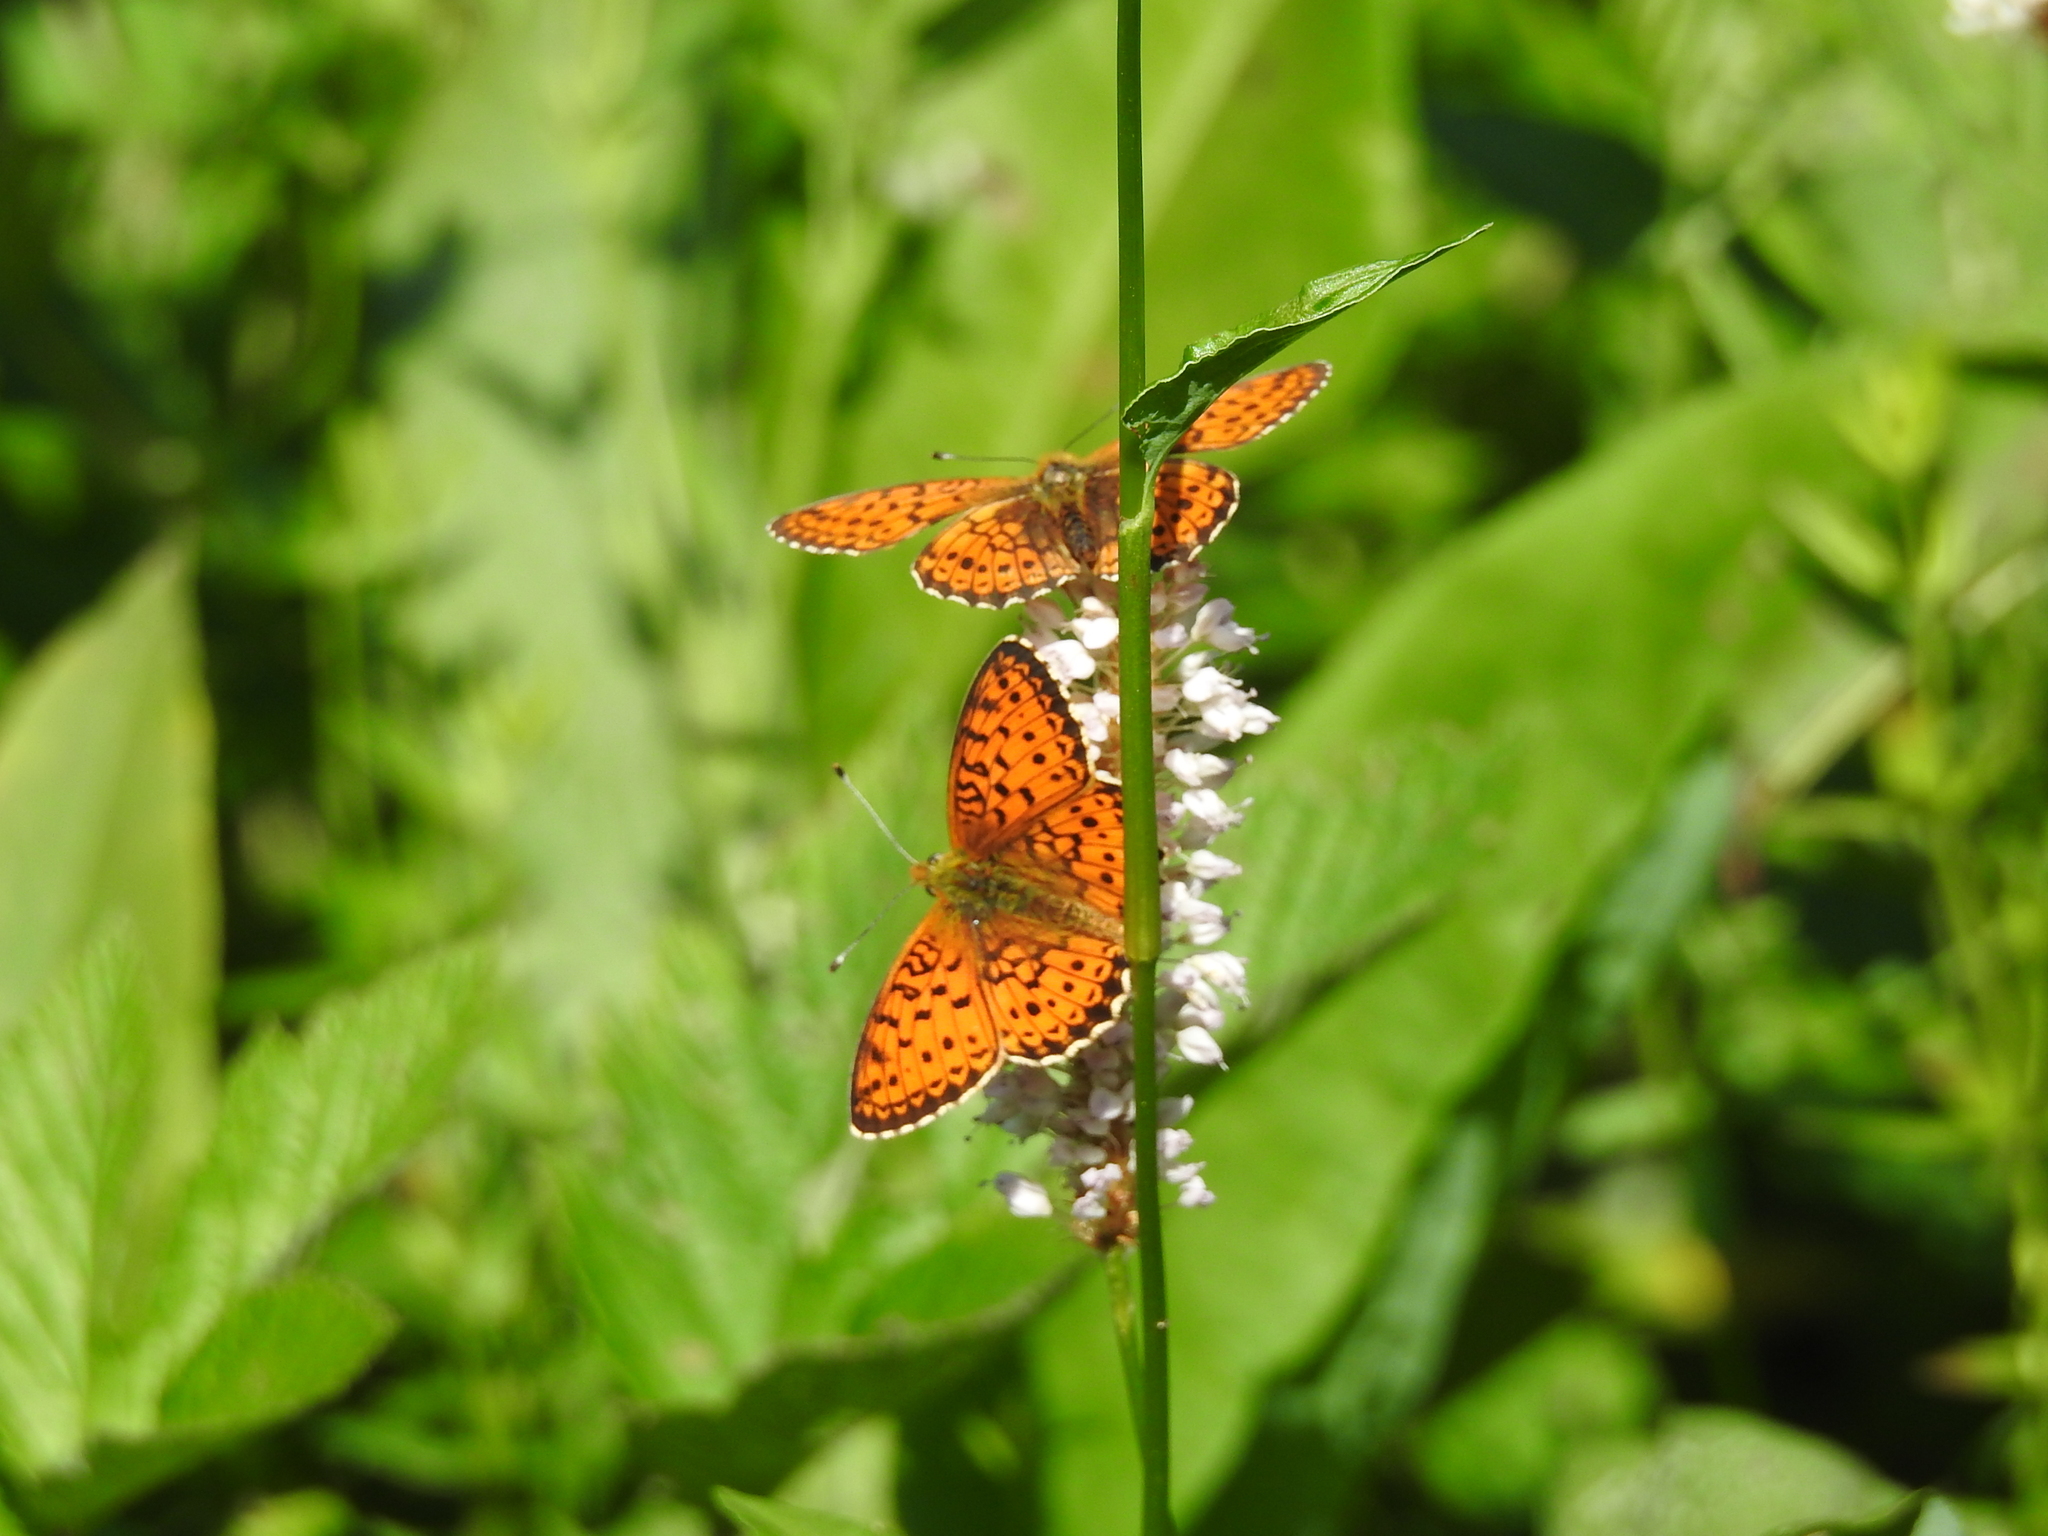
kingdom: Animalia
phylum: Arthropoda
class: Insecta
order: Lepidoptera
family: Nymphalidae
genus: Brenthis
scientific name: Brenthis ino
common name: Lesser marbled fritillary
